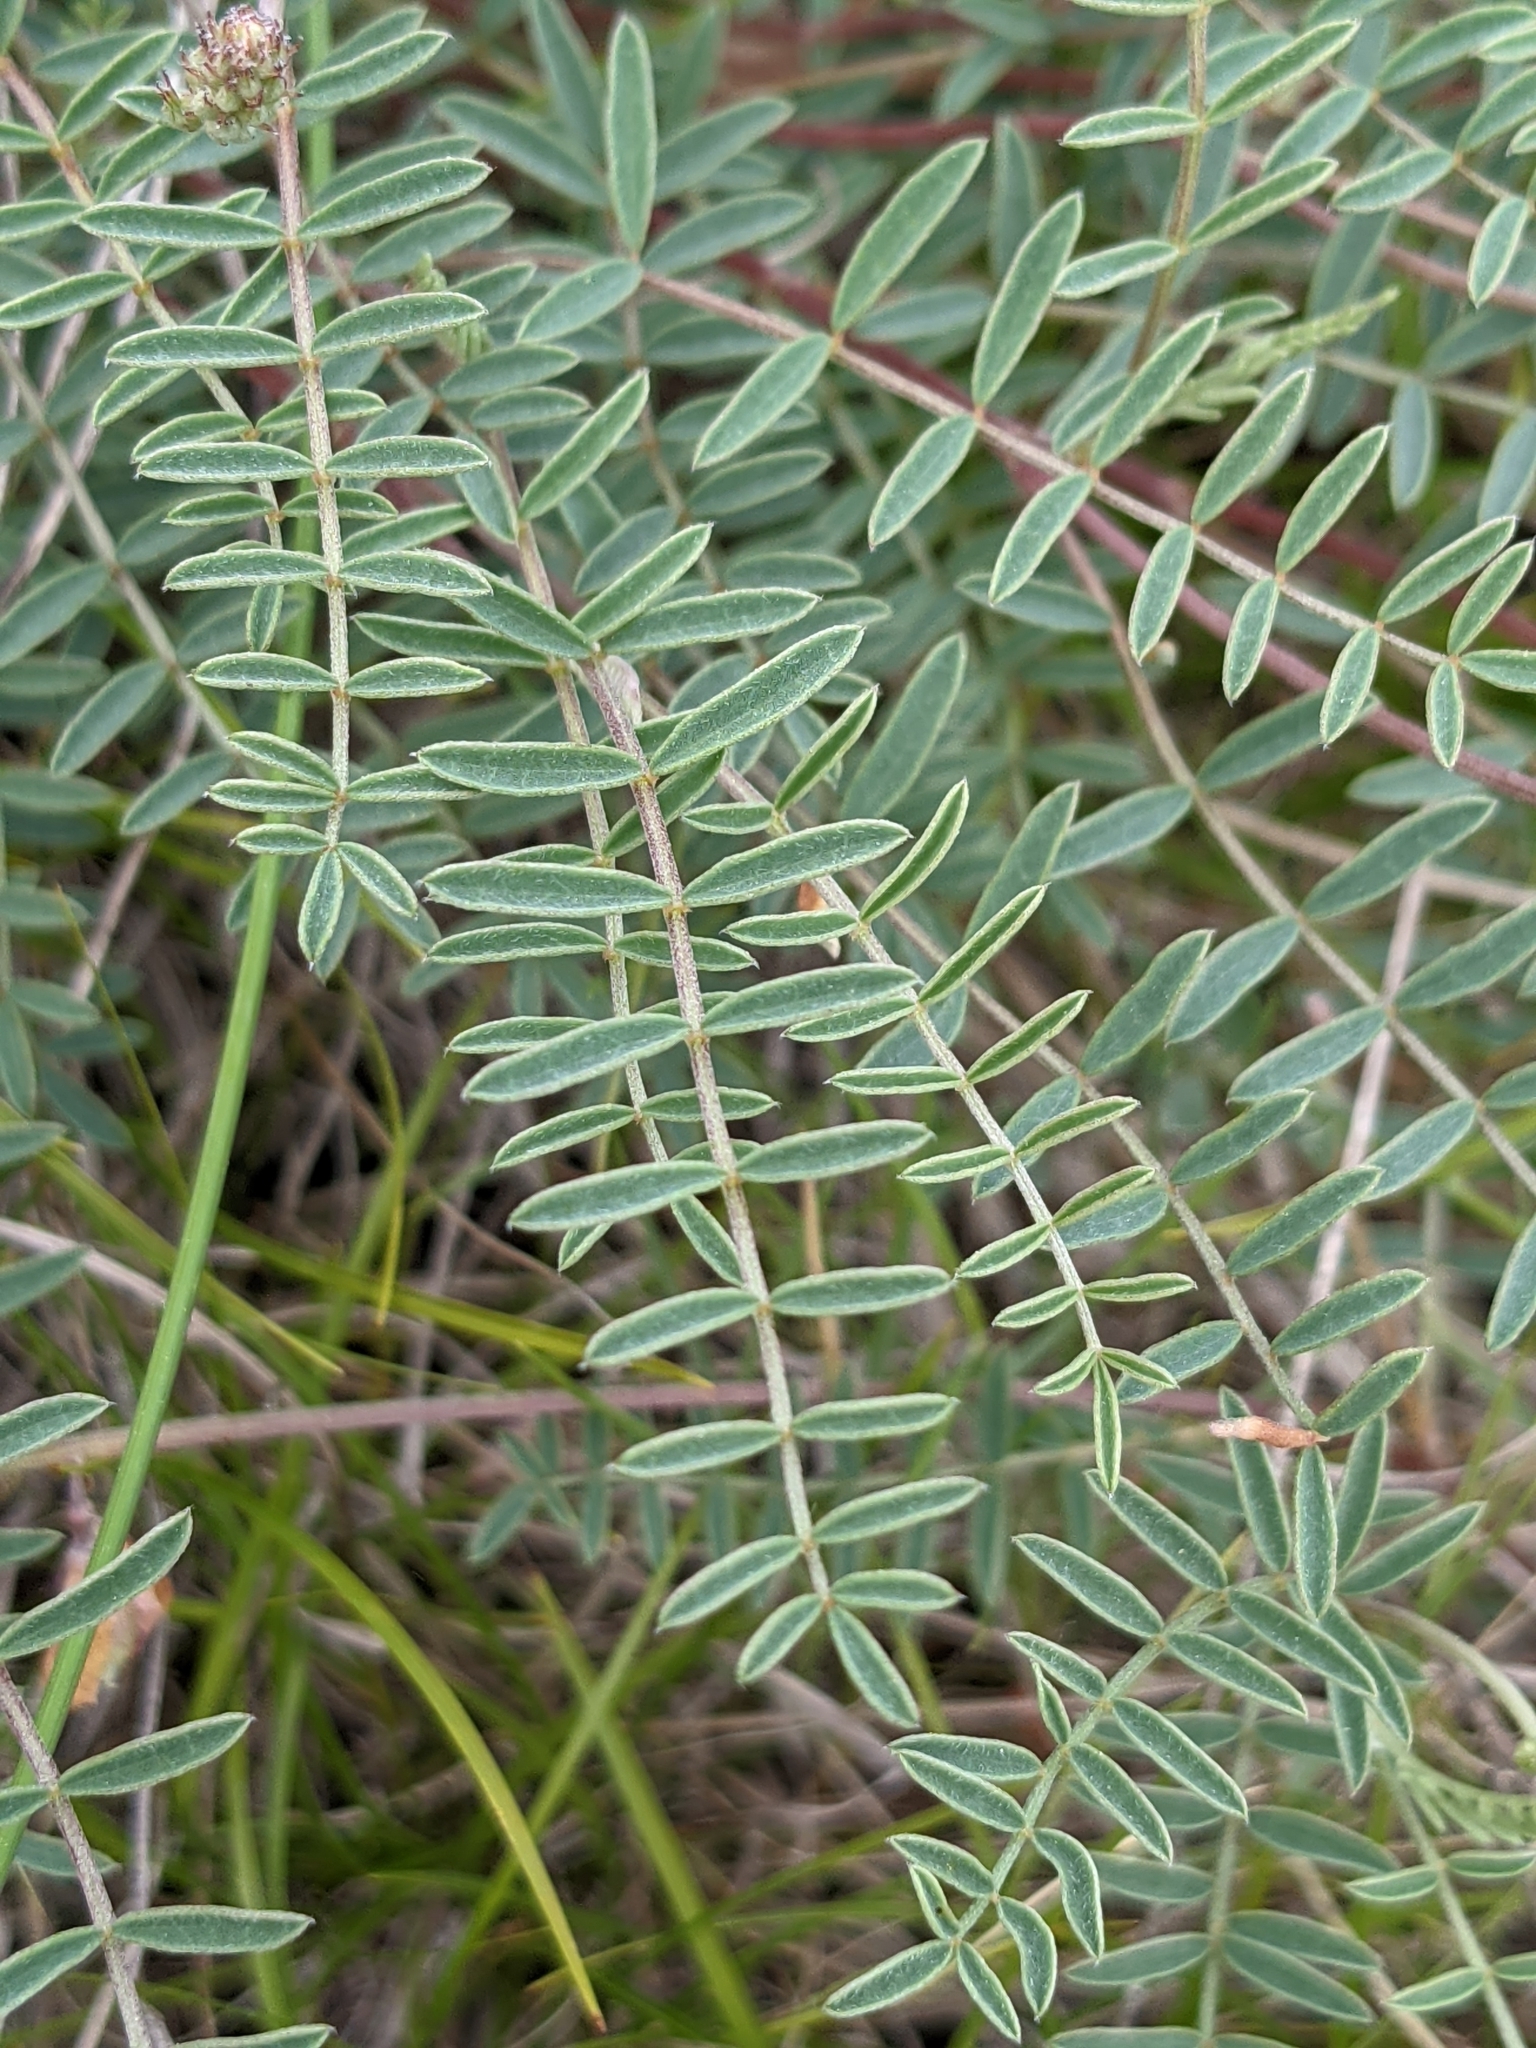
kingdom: Plantae
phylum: Tracheophyta
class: Magnoliopsida
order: Fabales
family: Fabaceae
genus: Hedysarum
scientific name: Hedysarum boveanum
